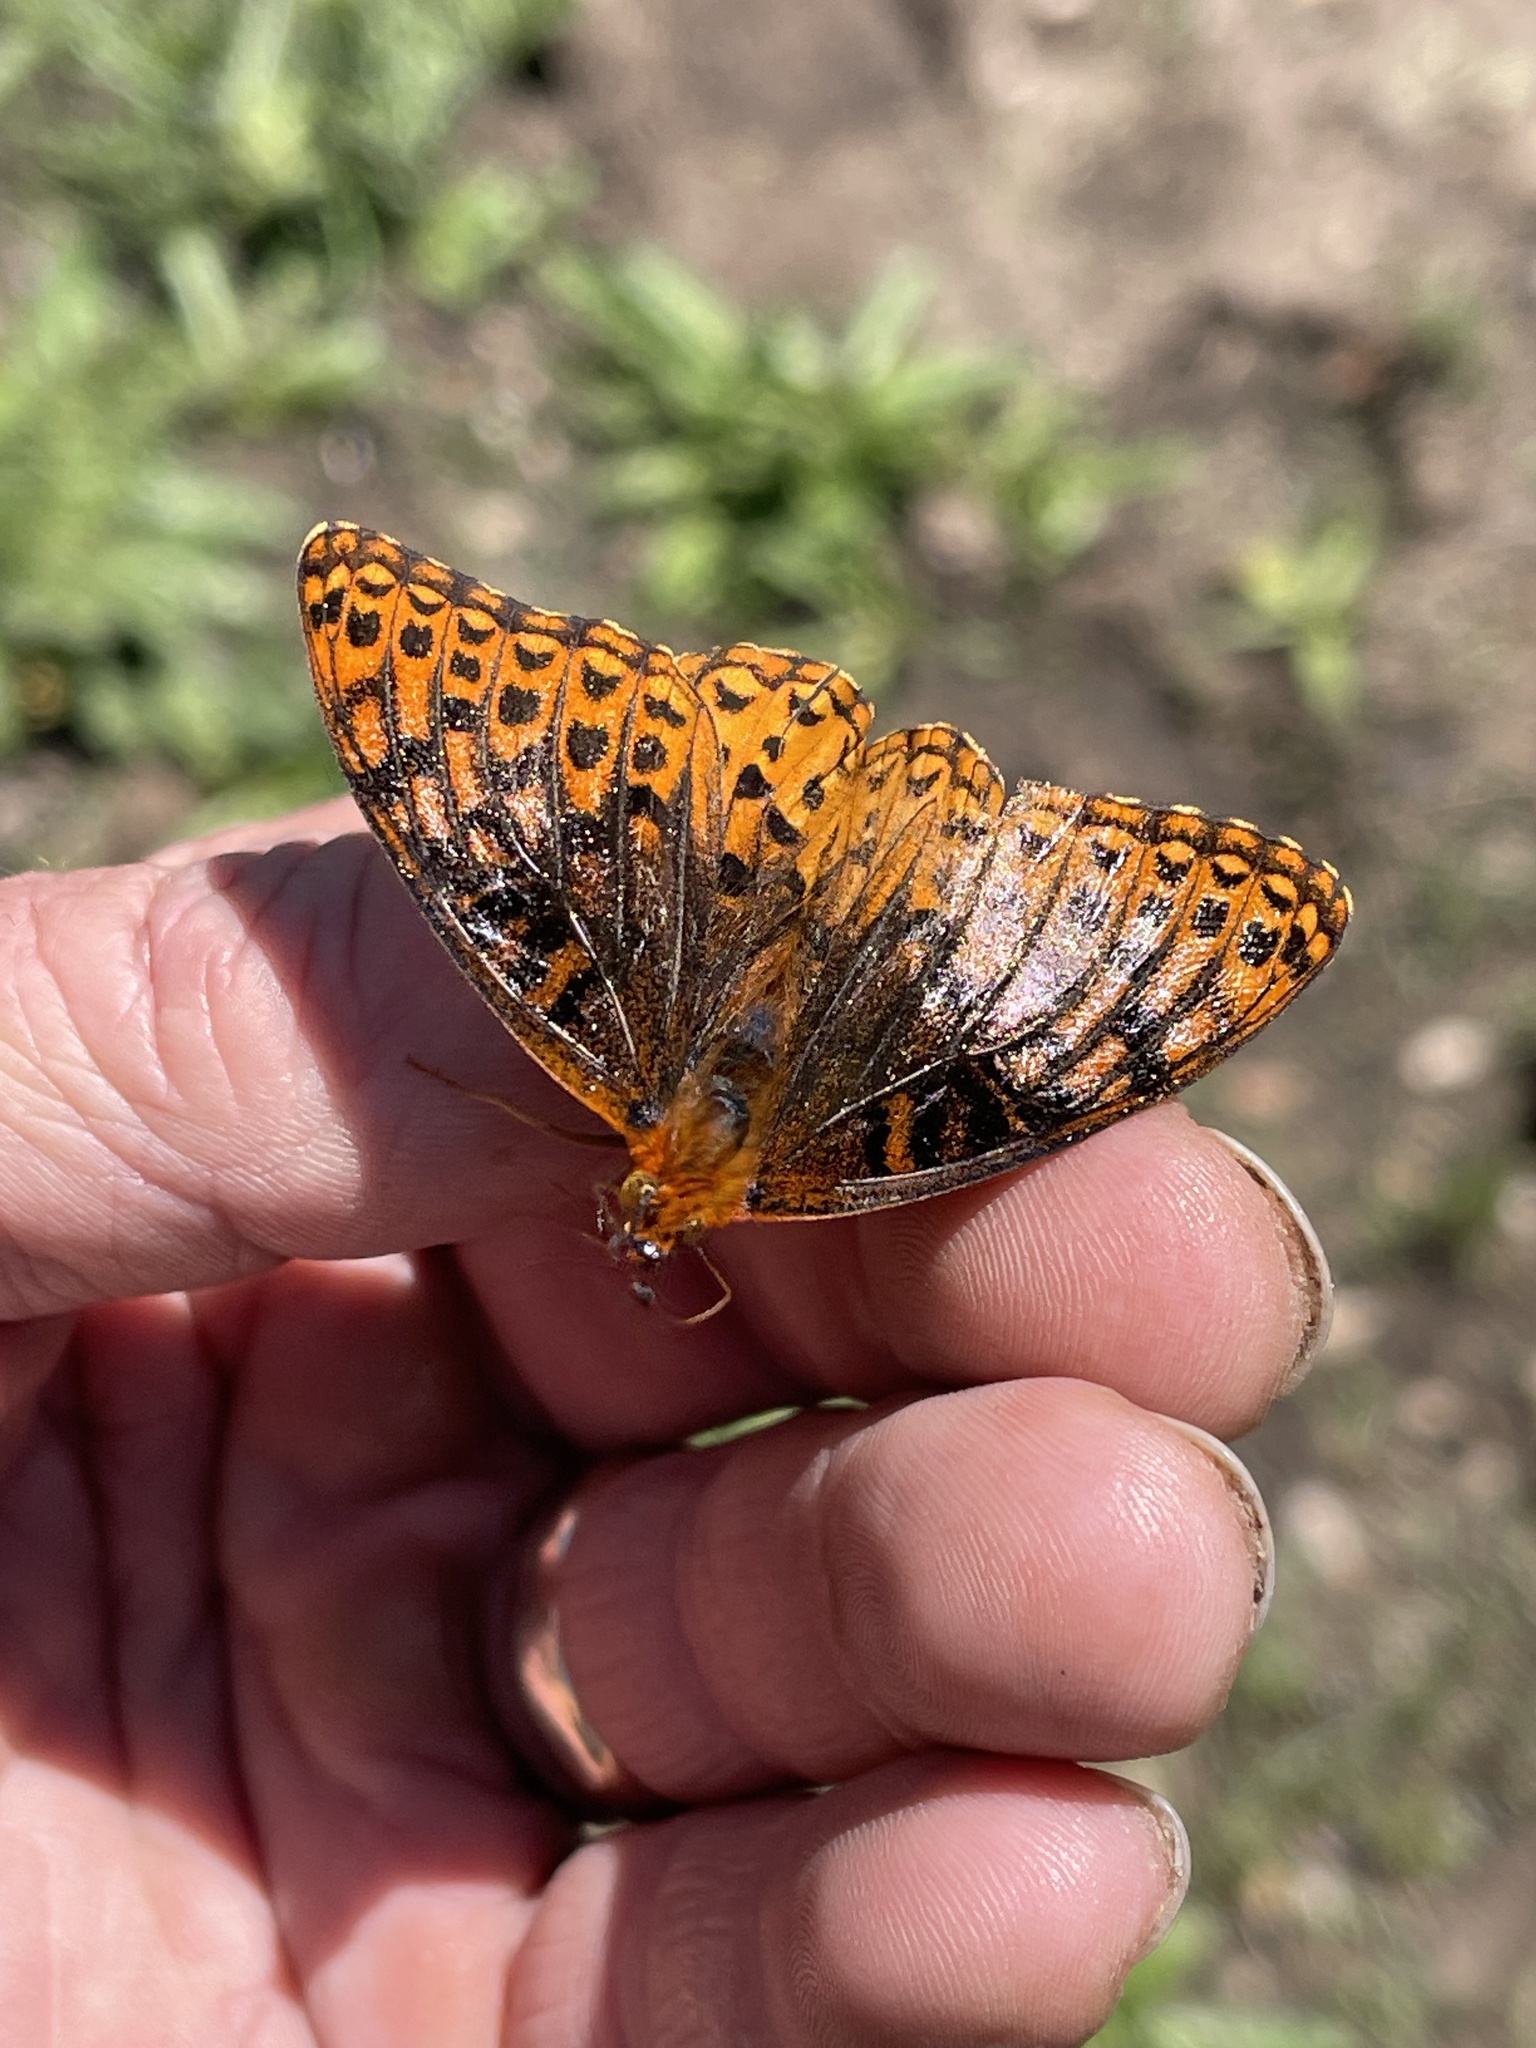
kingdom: Animalia
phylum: Arthropoda
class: Insecta
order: Lepidoptera
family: Nymphalidae
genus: Speyeria
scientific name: Speyeria atlantis
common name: Atlantis fritillary
